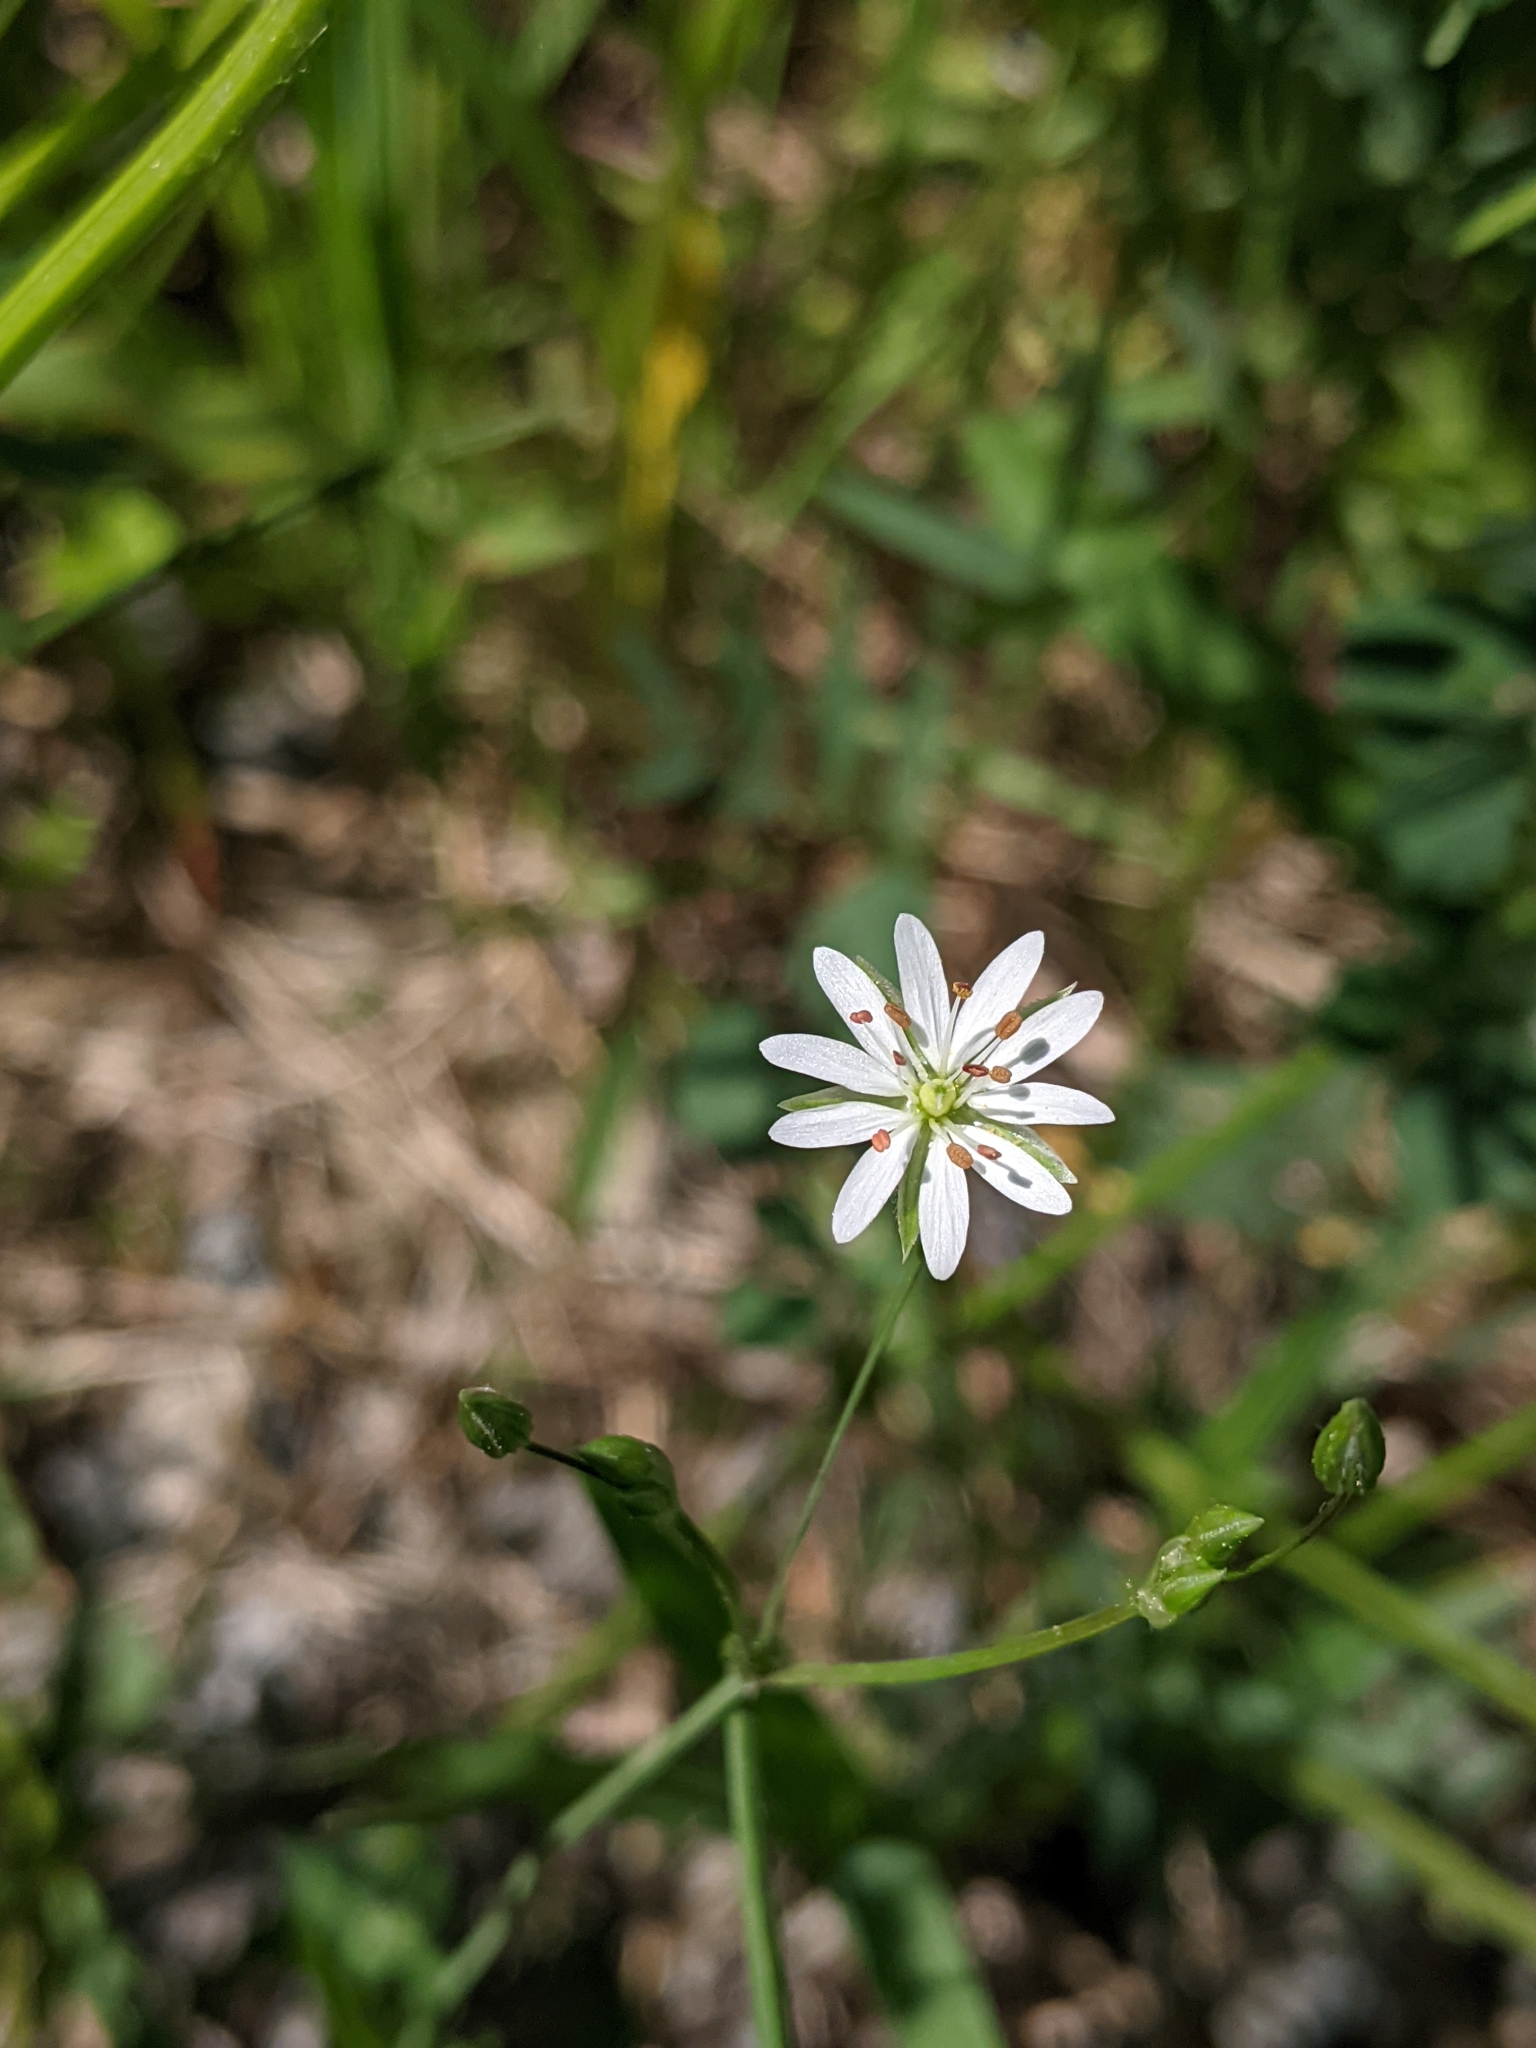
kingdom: Plantae
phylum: Tracheophyta
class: Magnoliopsida
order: Caryophyllales
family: Caryophyllaceae
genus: Stellaria
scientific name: Stellaria graminea
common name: Grass-like starwort
